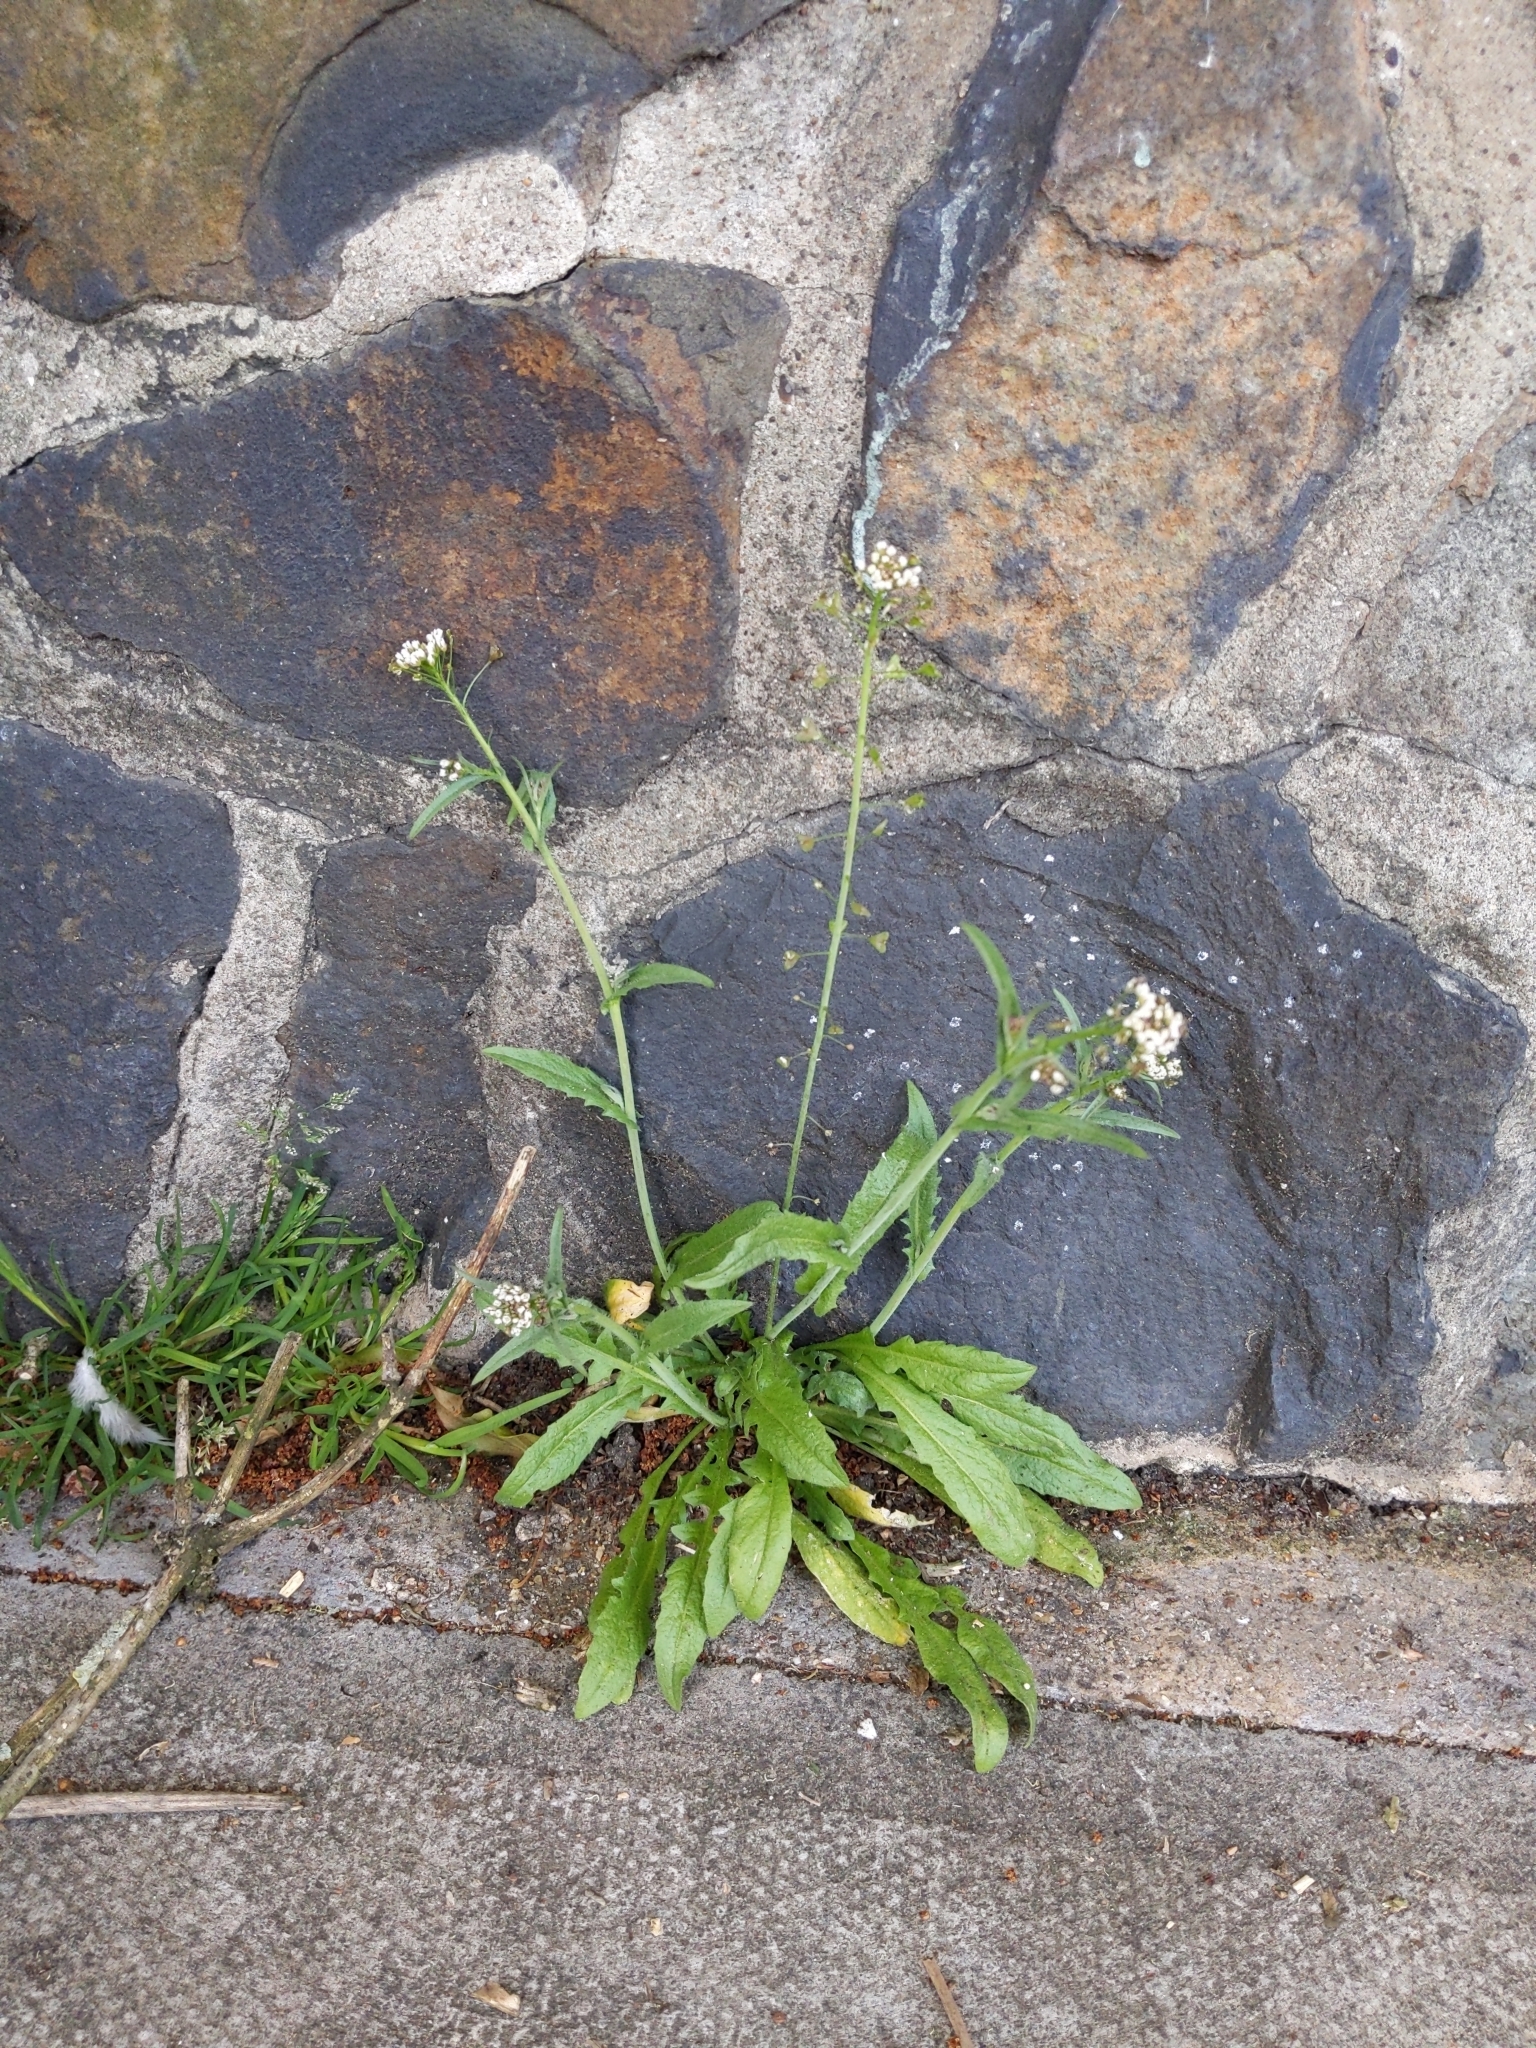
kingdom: Plantae
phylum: Tracheophyta
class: Magnoliopsida
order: Brassicales
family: Brassicaceae
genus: Capsella
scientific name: Capsella bursa-pastoris
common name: Shepherd's purse
